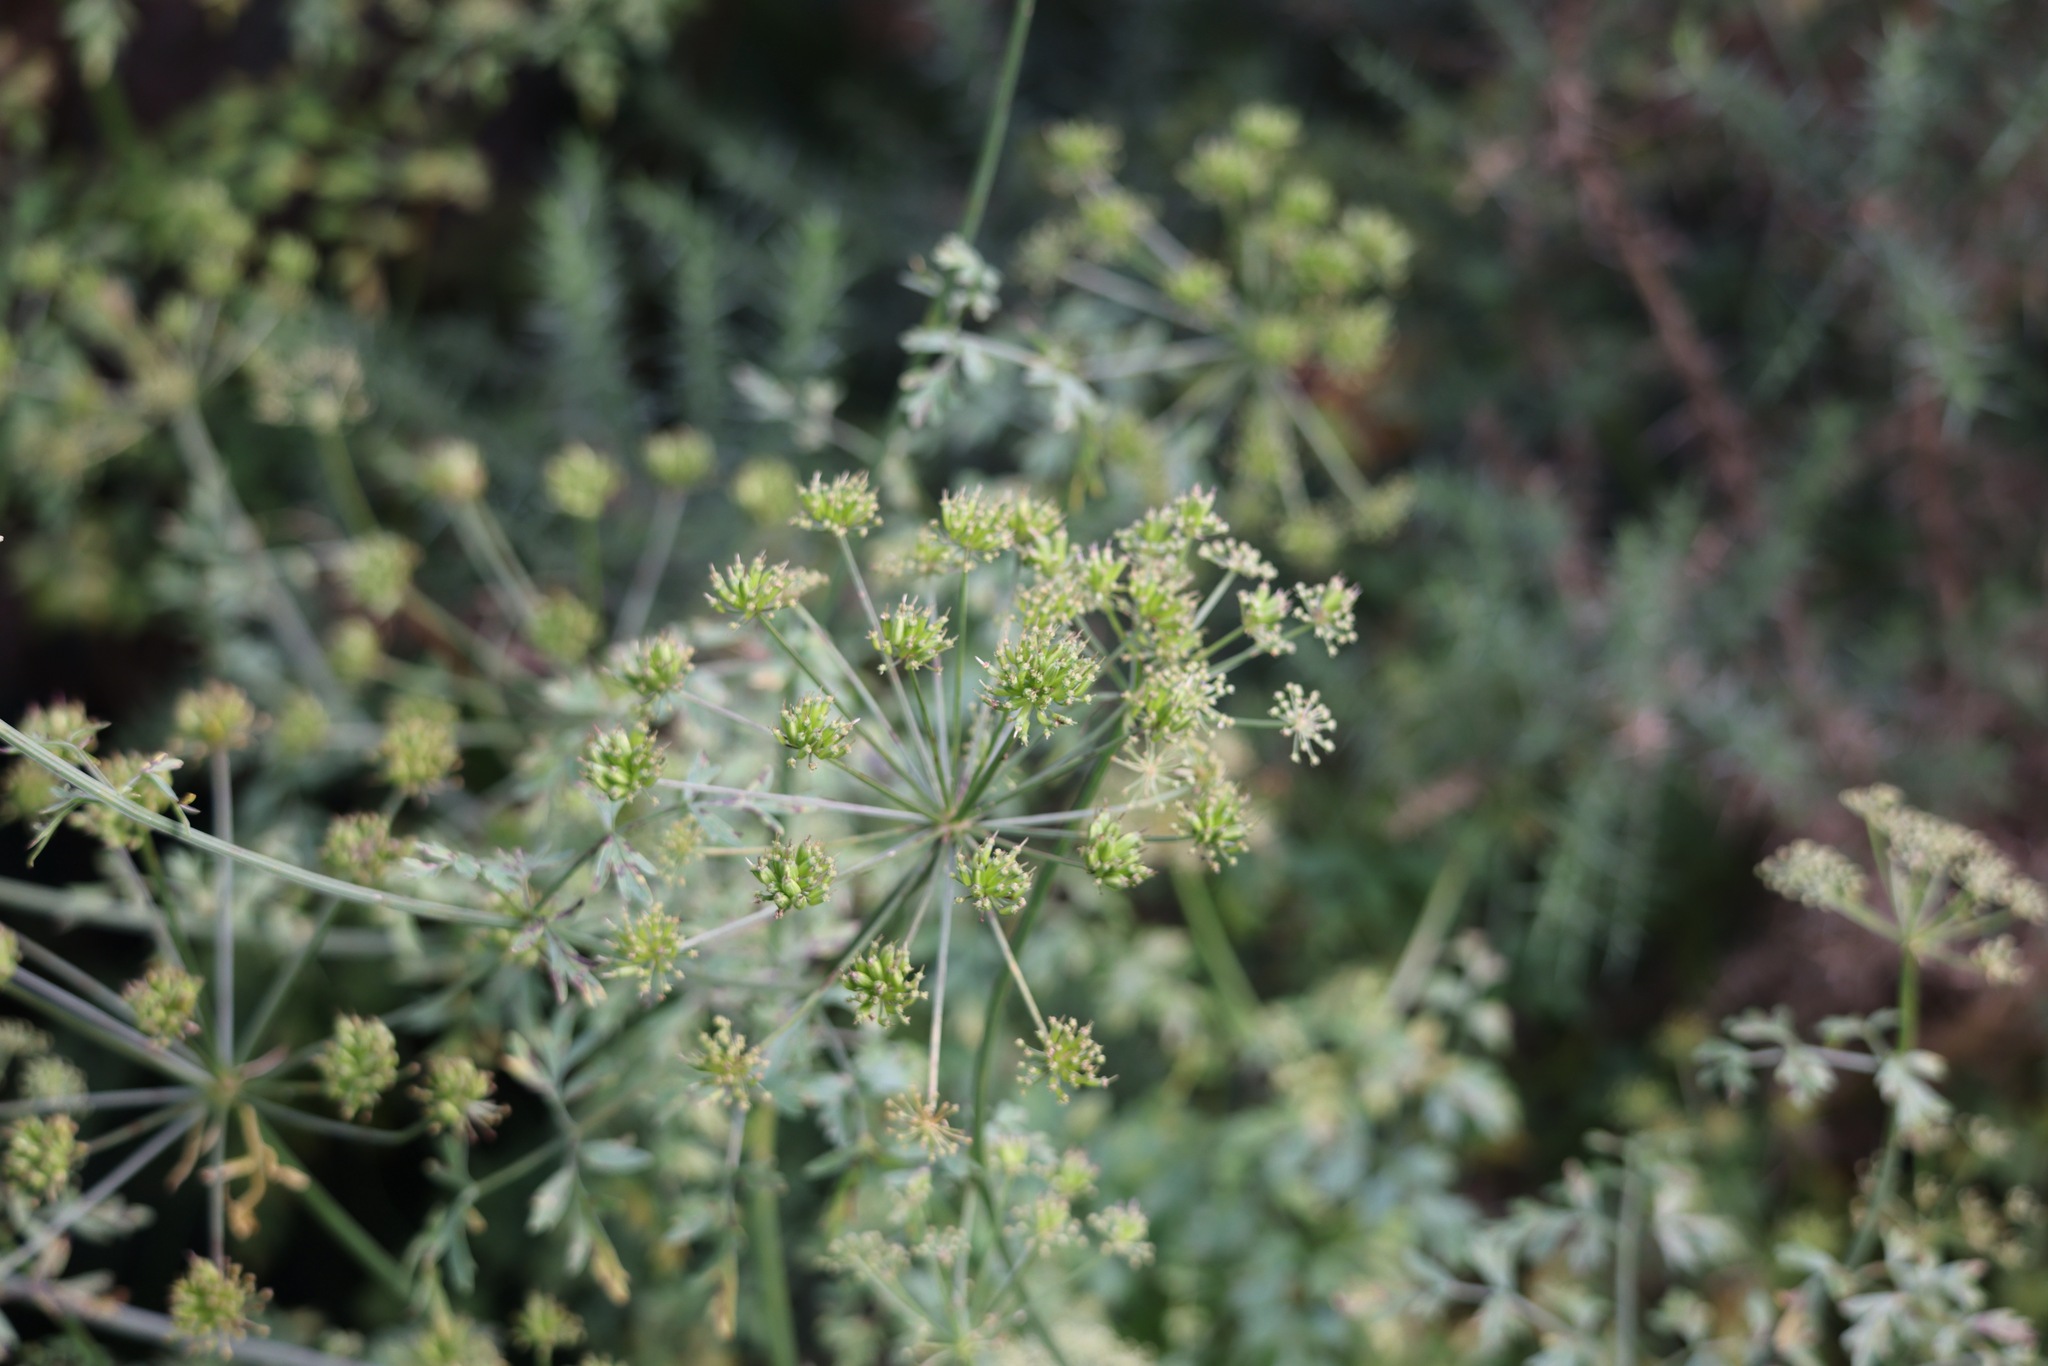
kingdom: Plantae
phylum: Tracheophyta
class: Magnoliopsida
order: Apiales
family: Apiaceae
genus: Oenanthe
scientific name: Oenanthe crocata
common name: Hemlock water-dropwort
